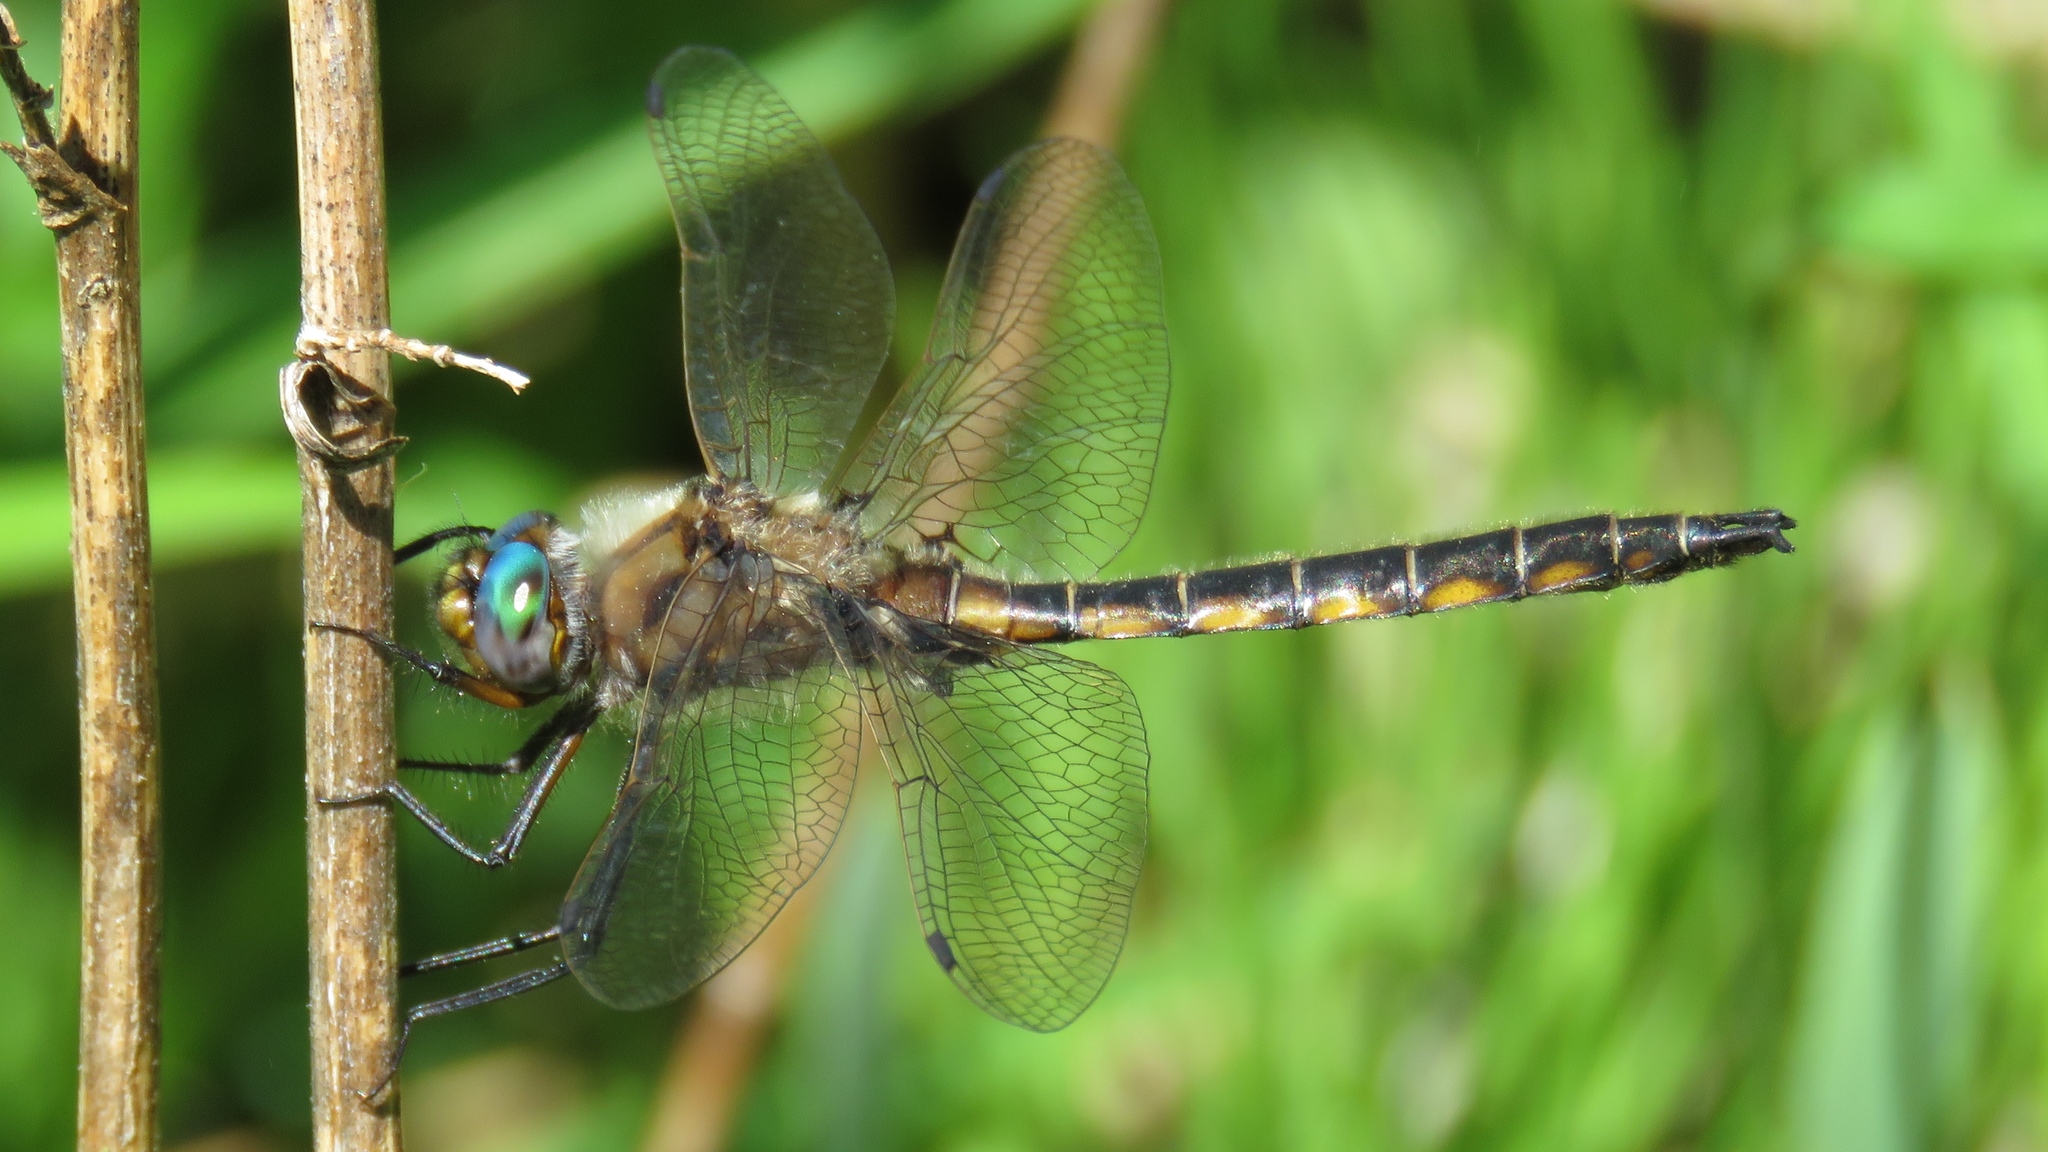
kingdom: Animalia
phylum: Arthropoda
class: Insecta
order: Odonata
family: Corduliidae
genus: Epitheca
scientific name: Epitheca canis
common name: Beaverpond baskettail
